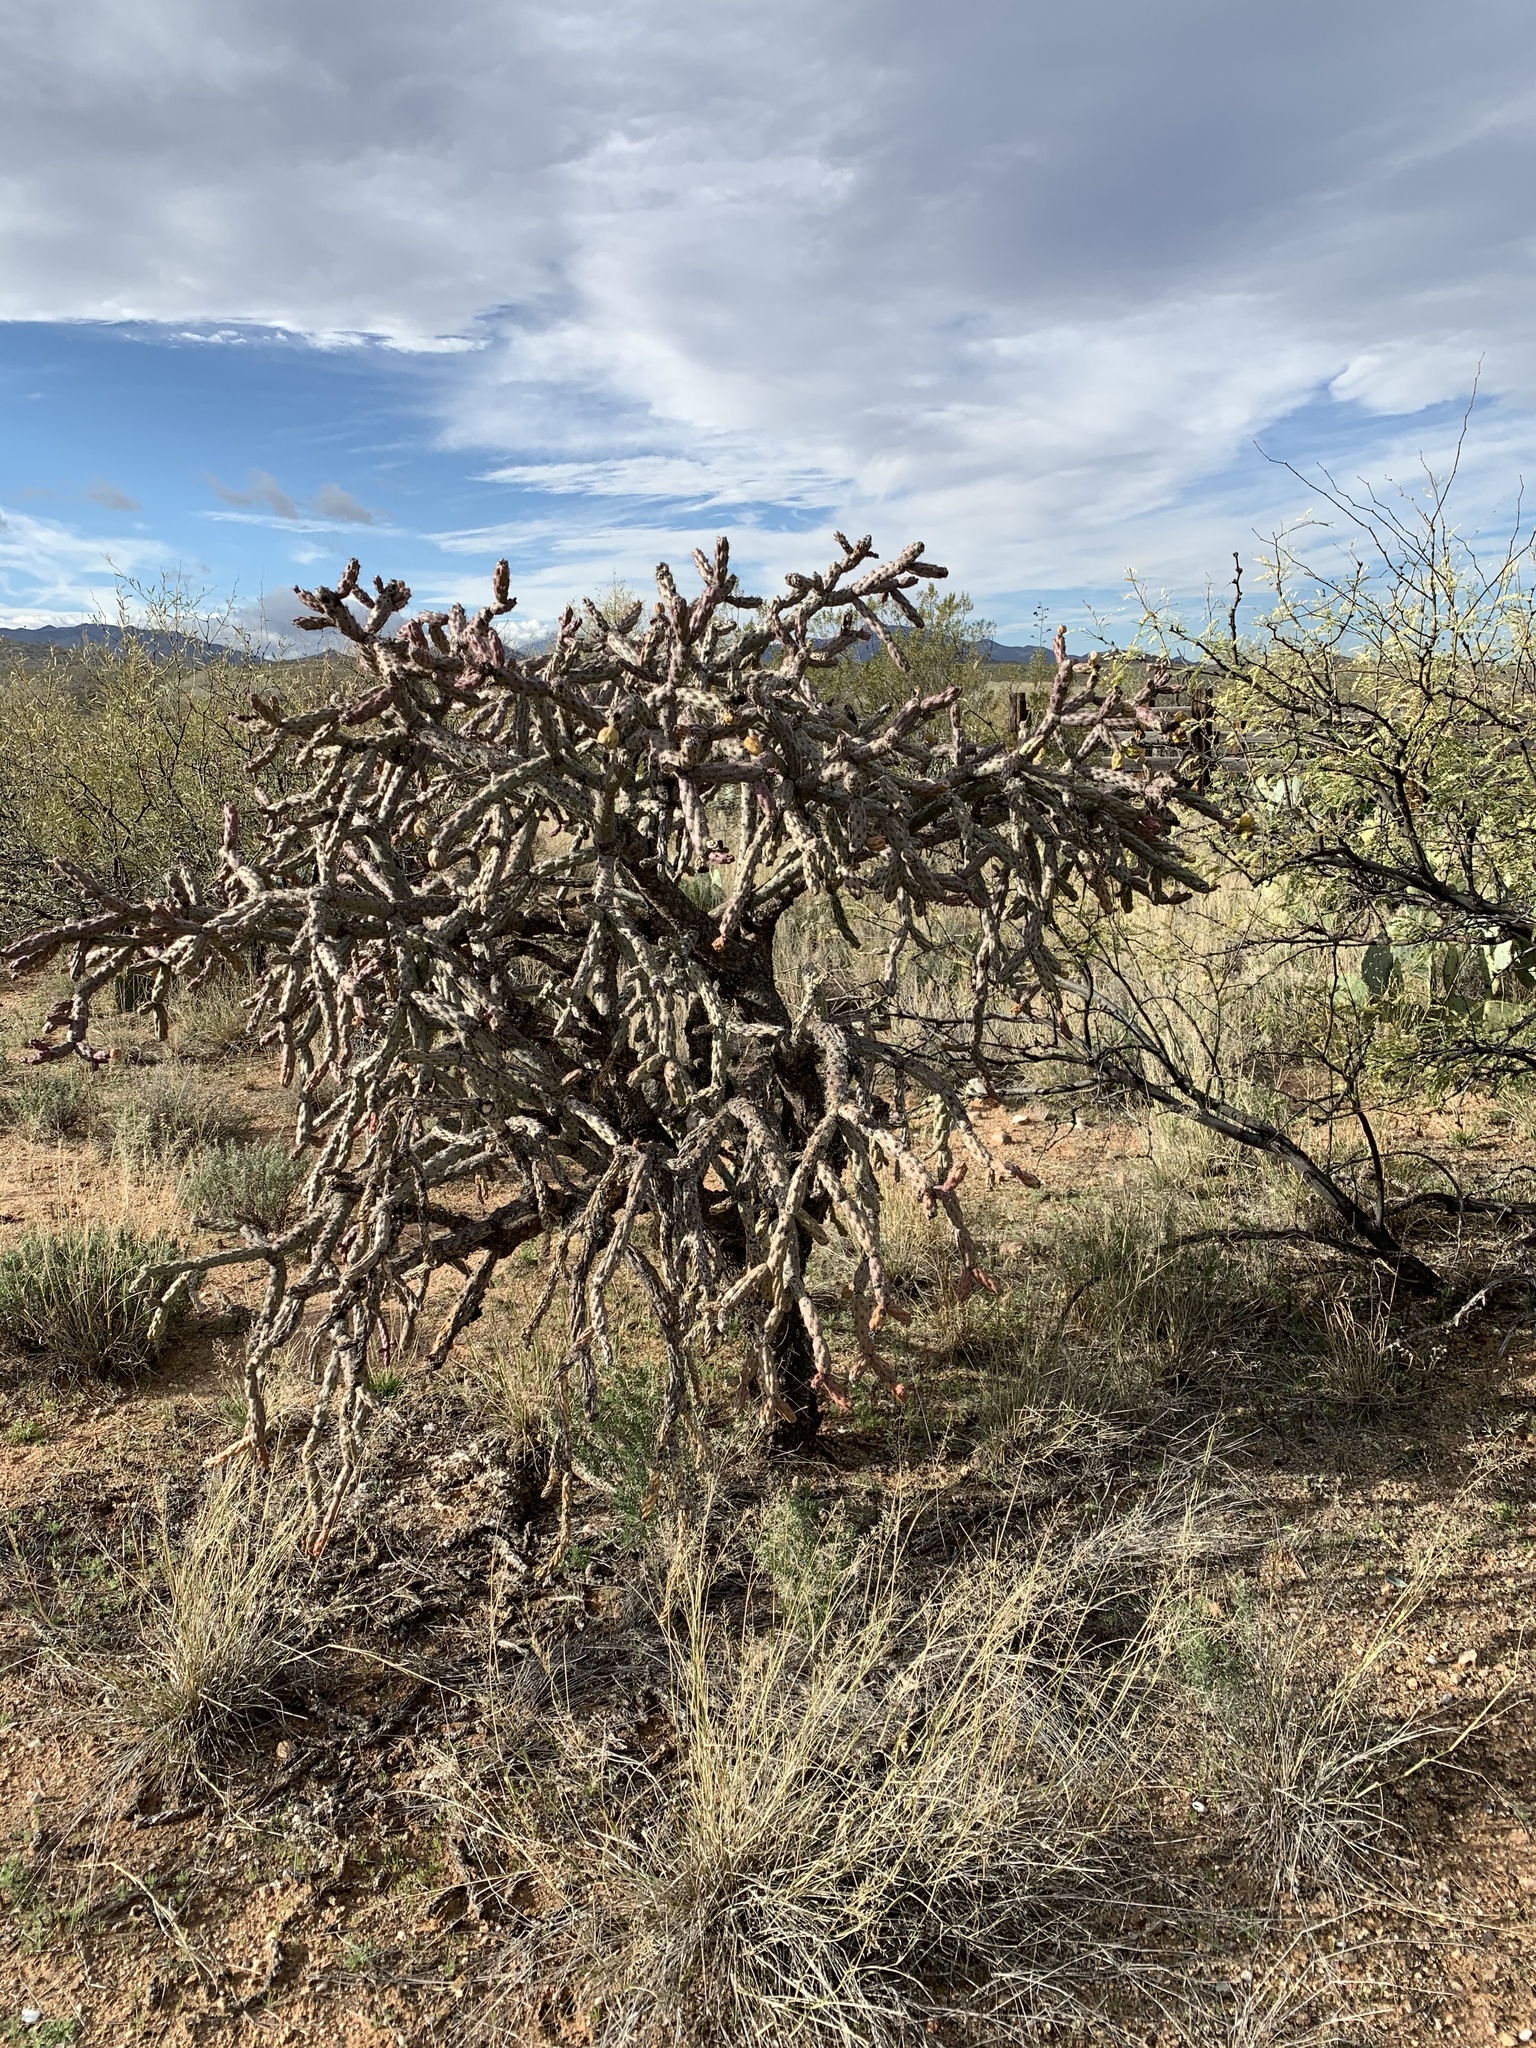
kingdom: Plantae
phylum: Tracheophyta
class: Magnoliopsida
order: Caryophyllales
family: Cactaceae
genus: Cylindropuntia
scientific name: Cylindropuntia thurberi
